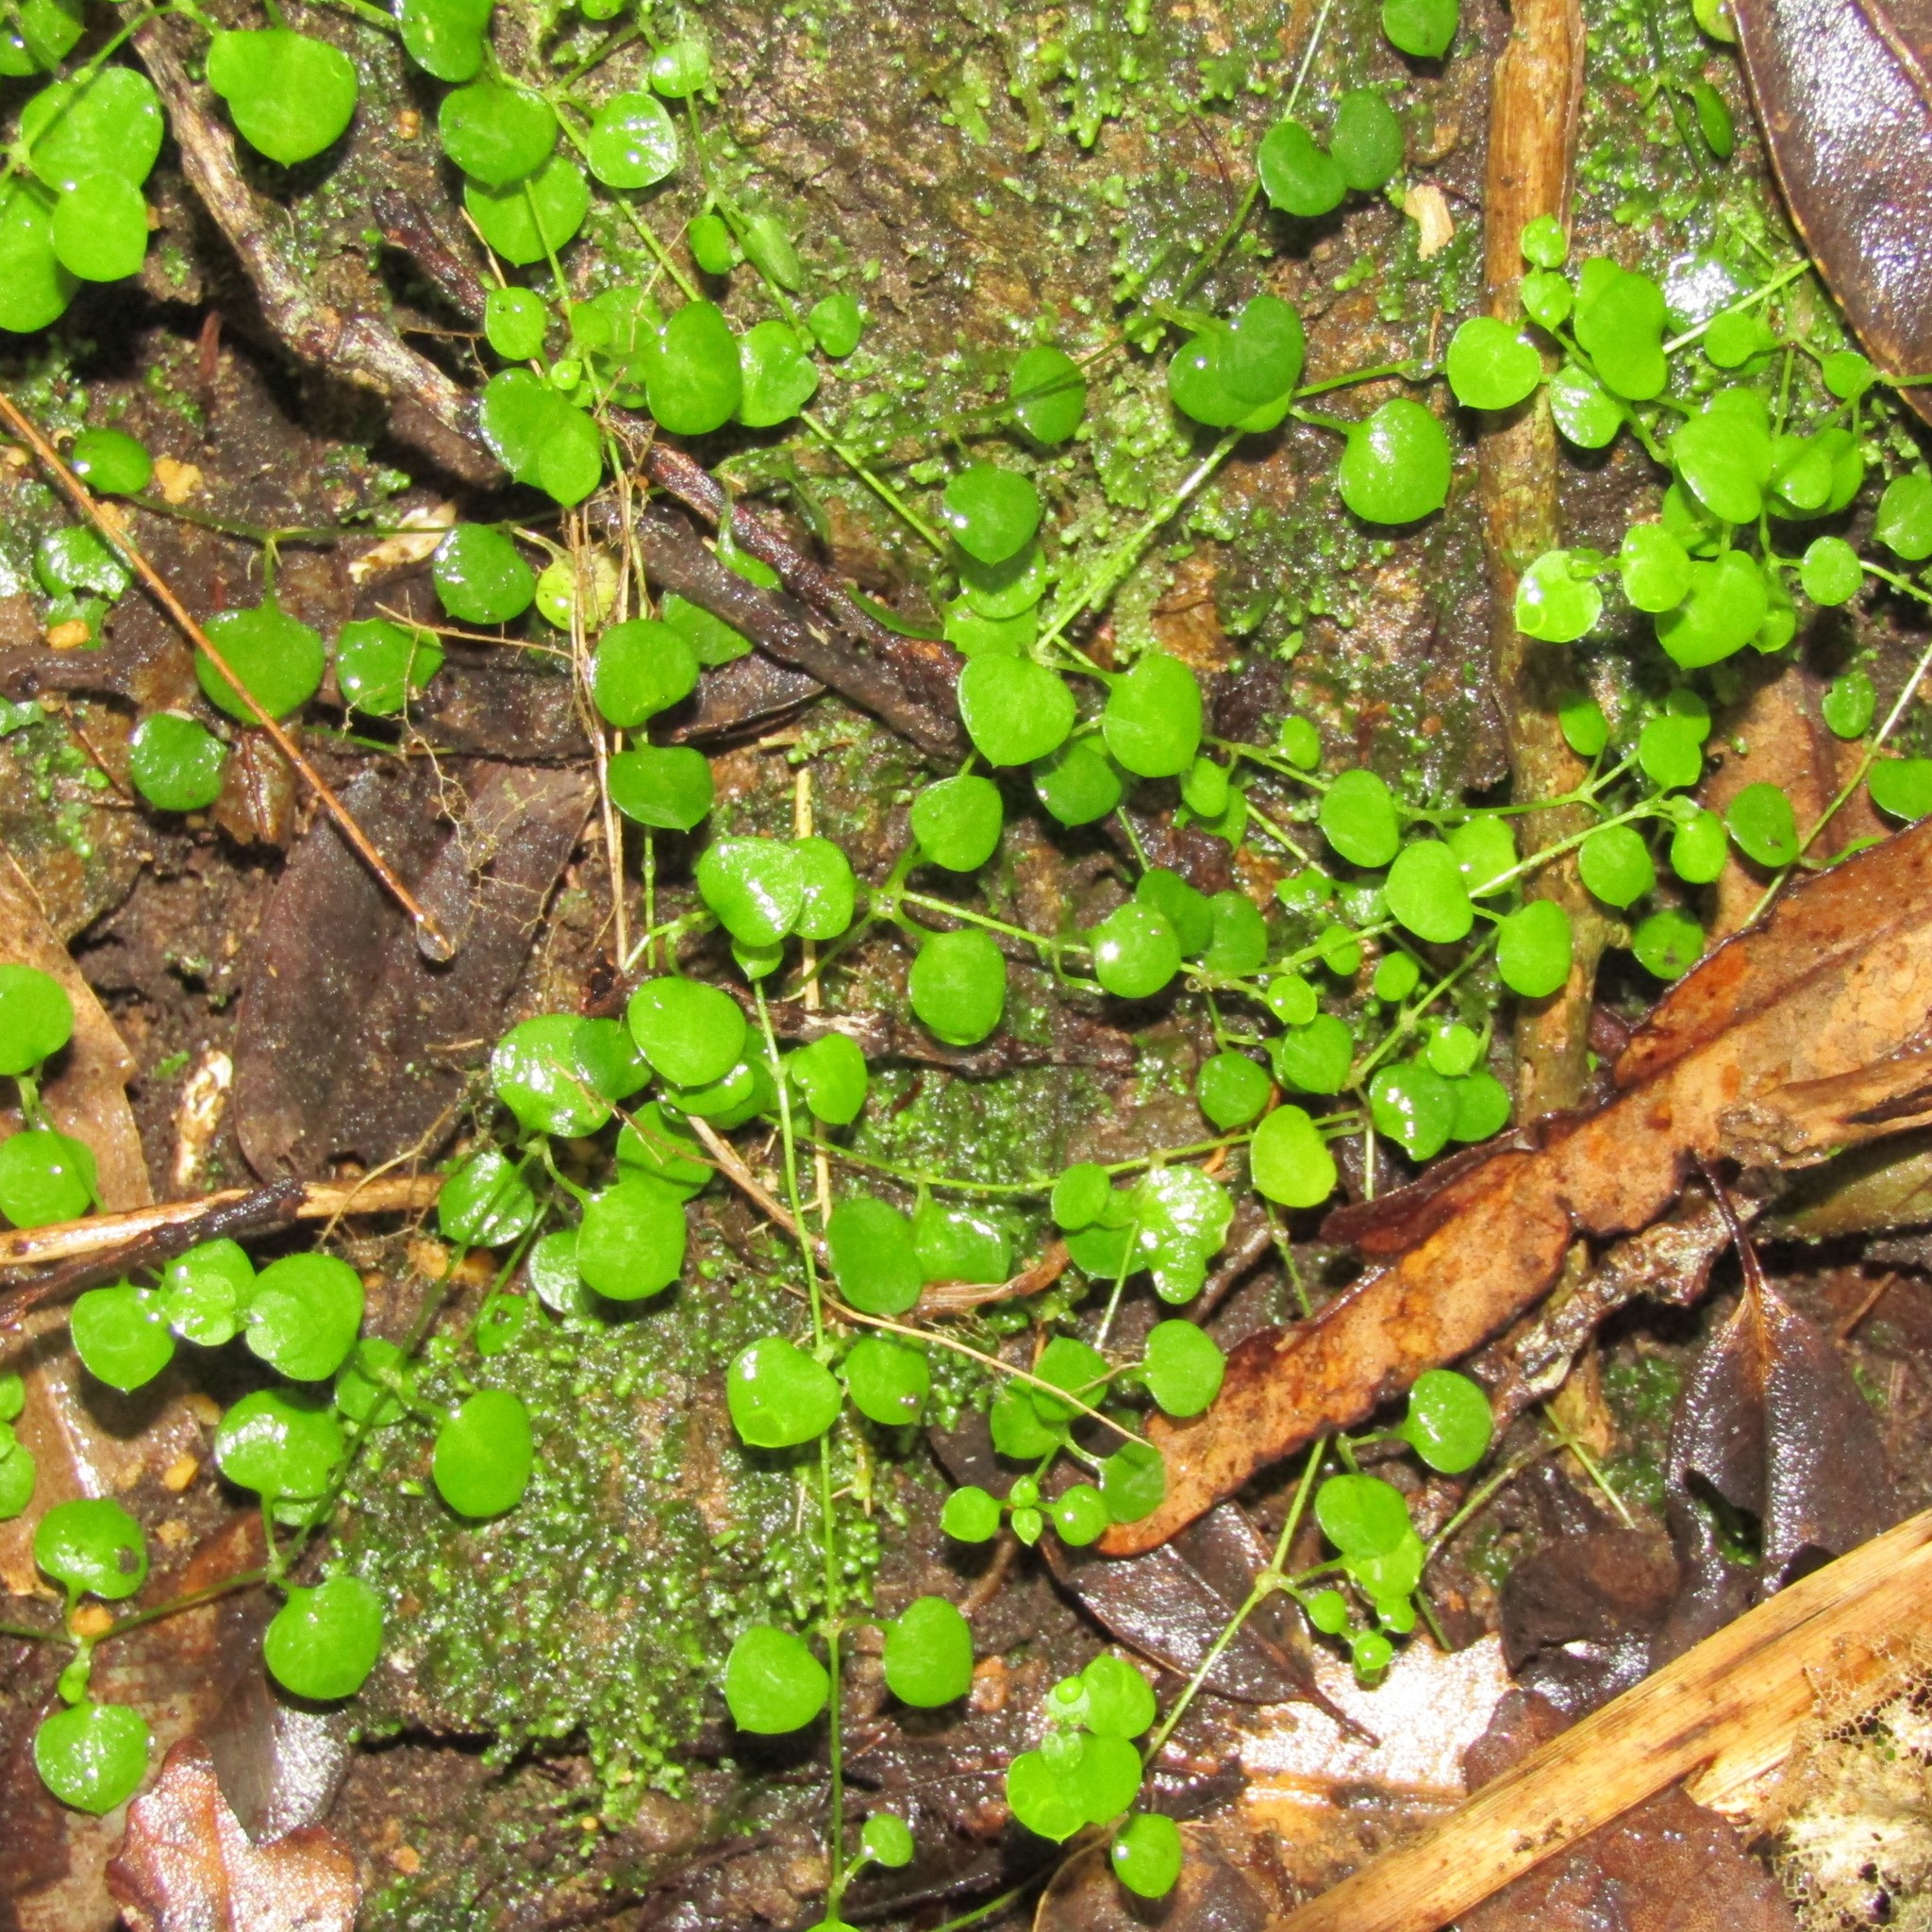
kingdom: Plantae
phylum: Tracheophyta
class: Magnoliopsida
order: Caryophyllales
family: Caryophyllaceae
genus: Stellaria
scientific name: Stellaria parviflora
